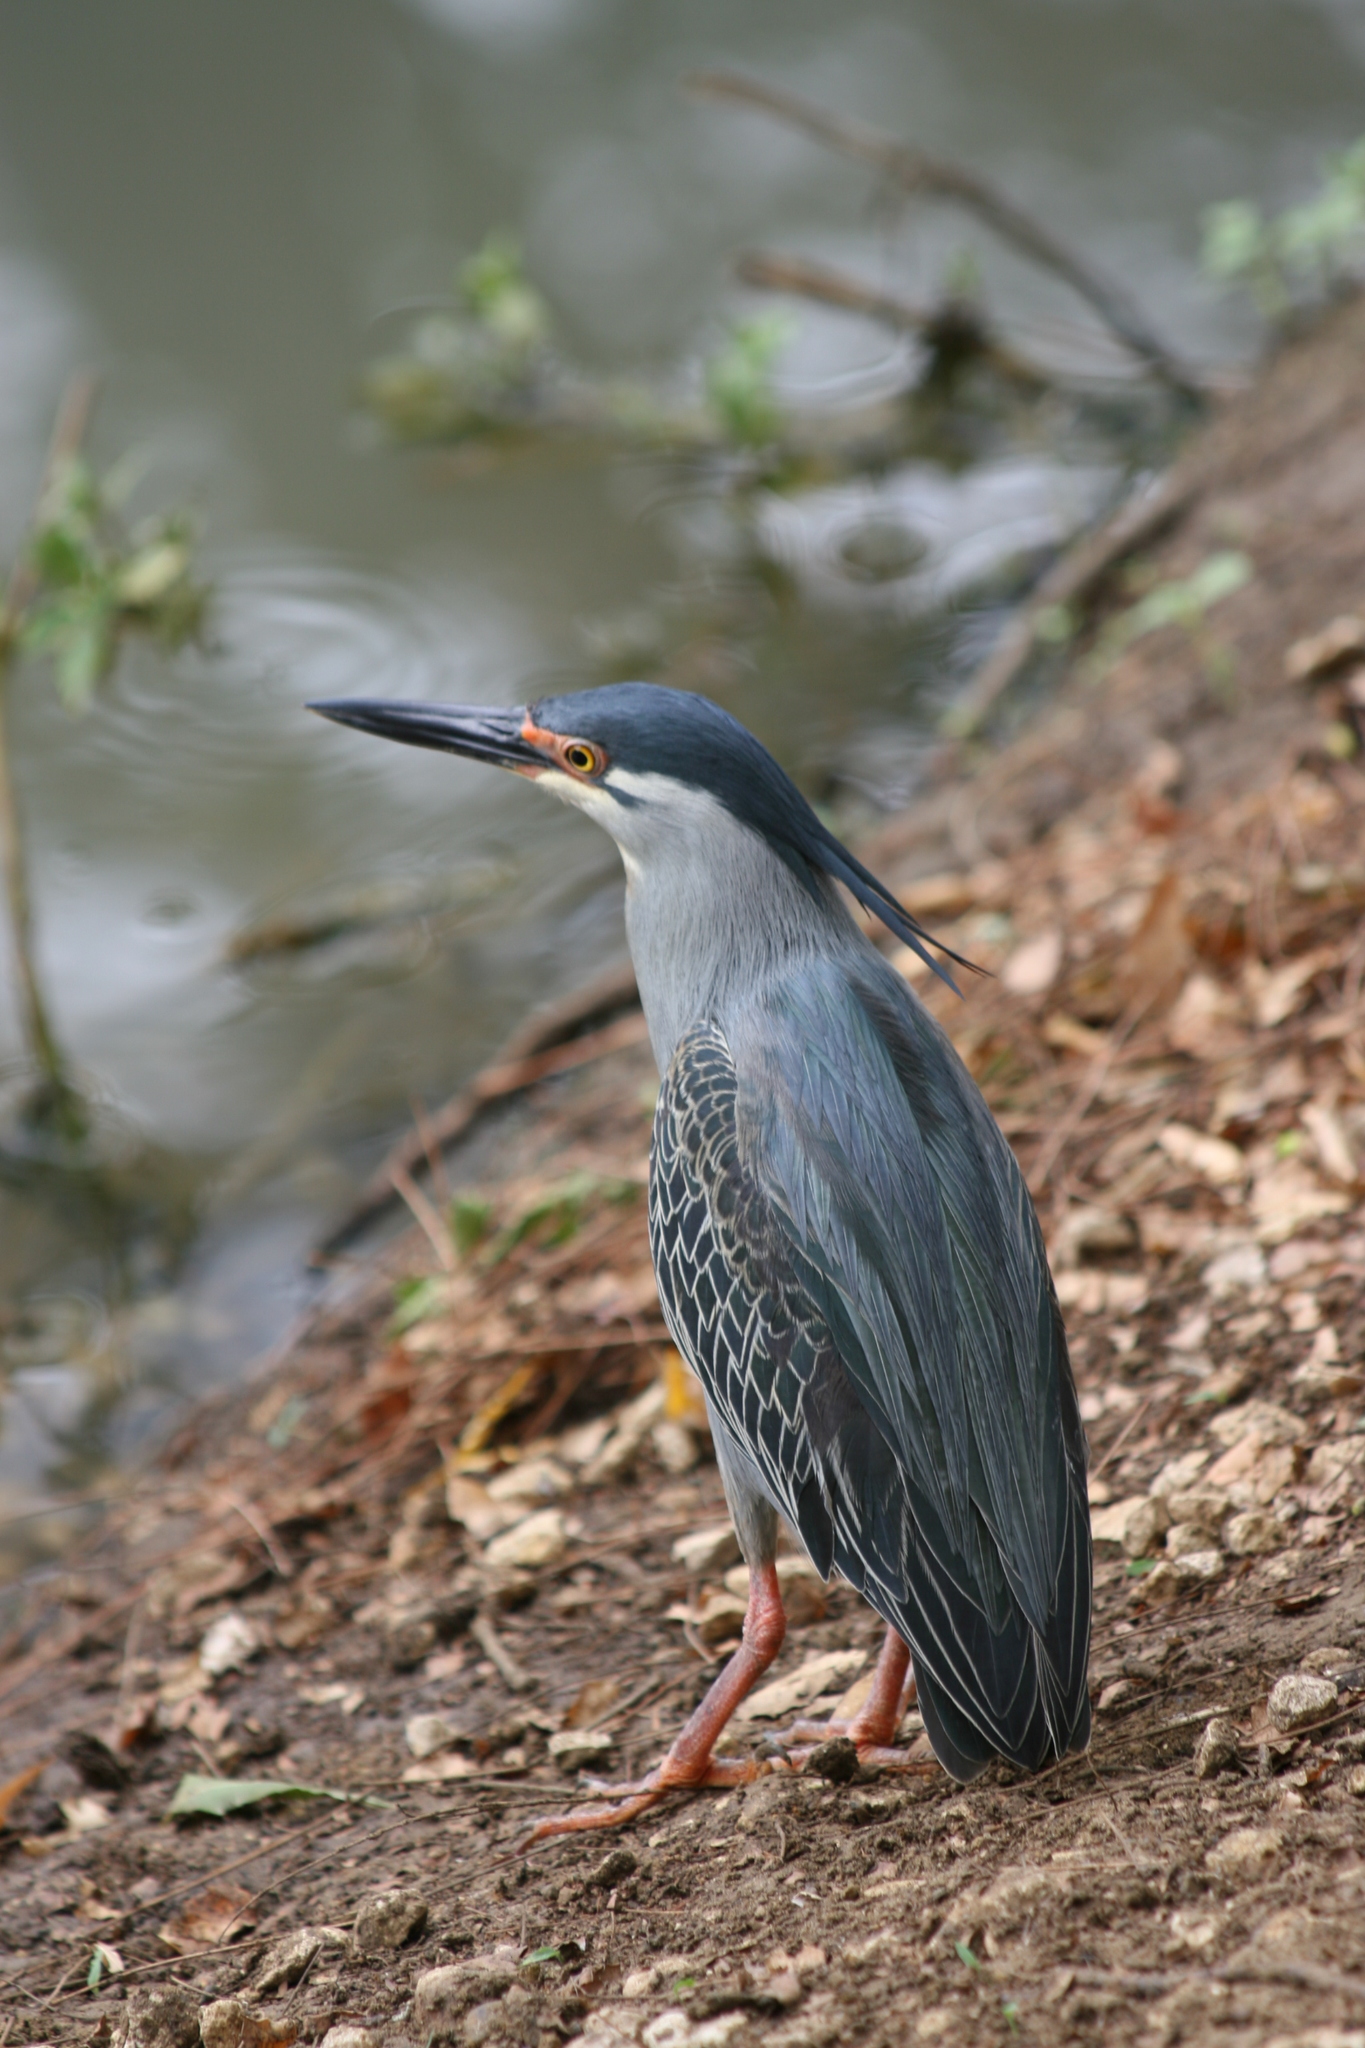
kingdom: Animalia
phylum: Chordata
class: Aves
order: Pelecaniformes
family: Ardeidae
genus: Butorides
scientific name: Butorides striata
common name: Striated heron
